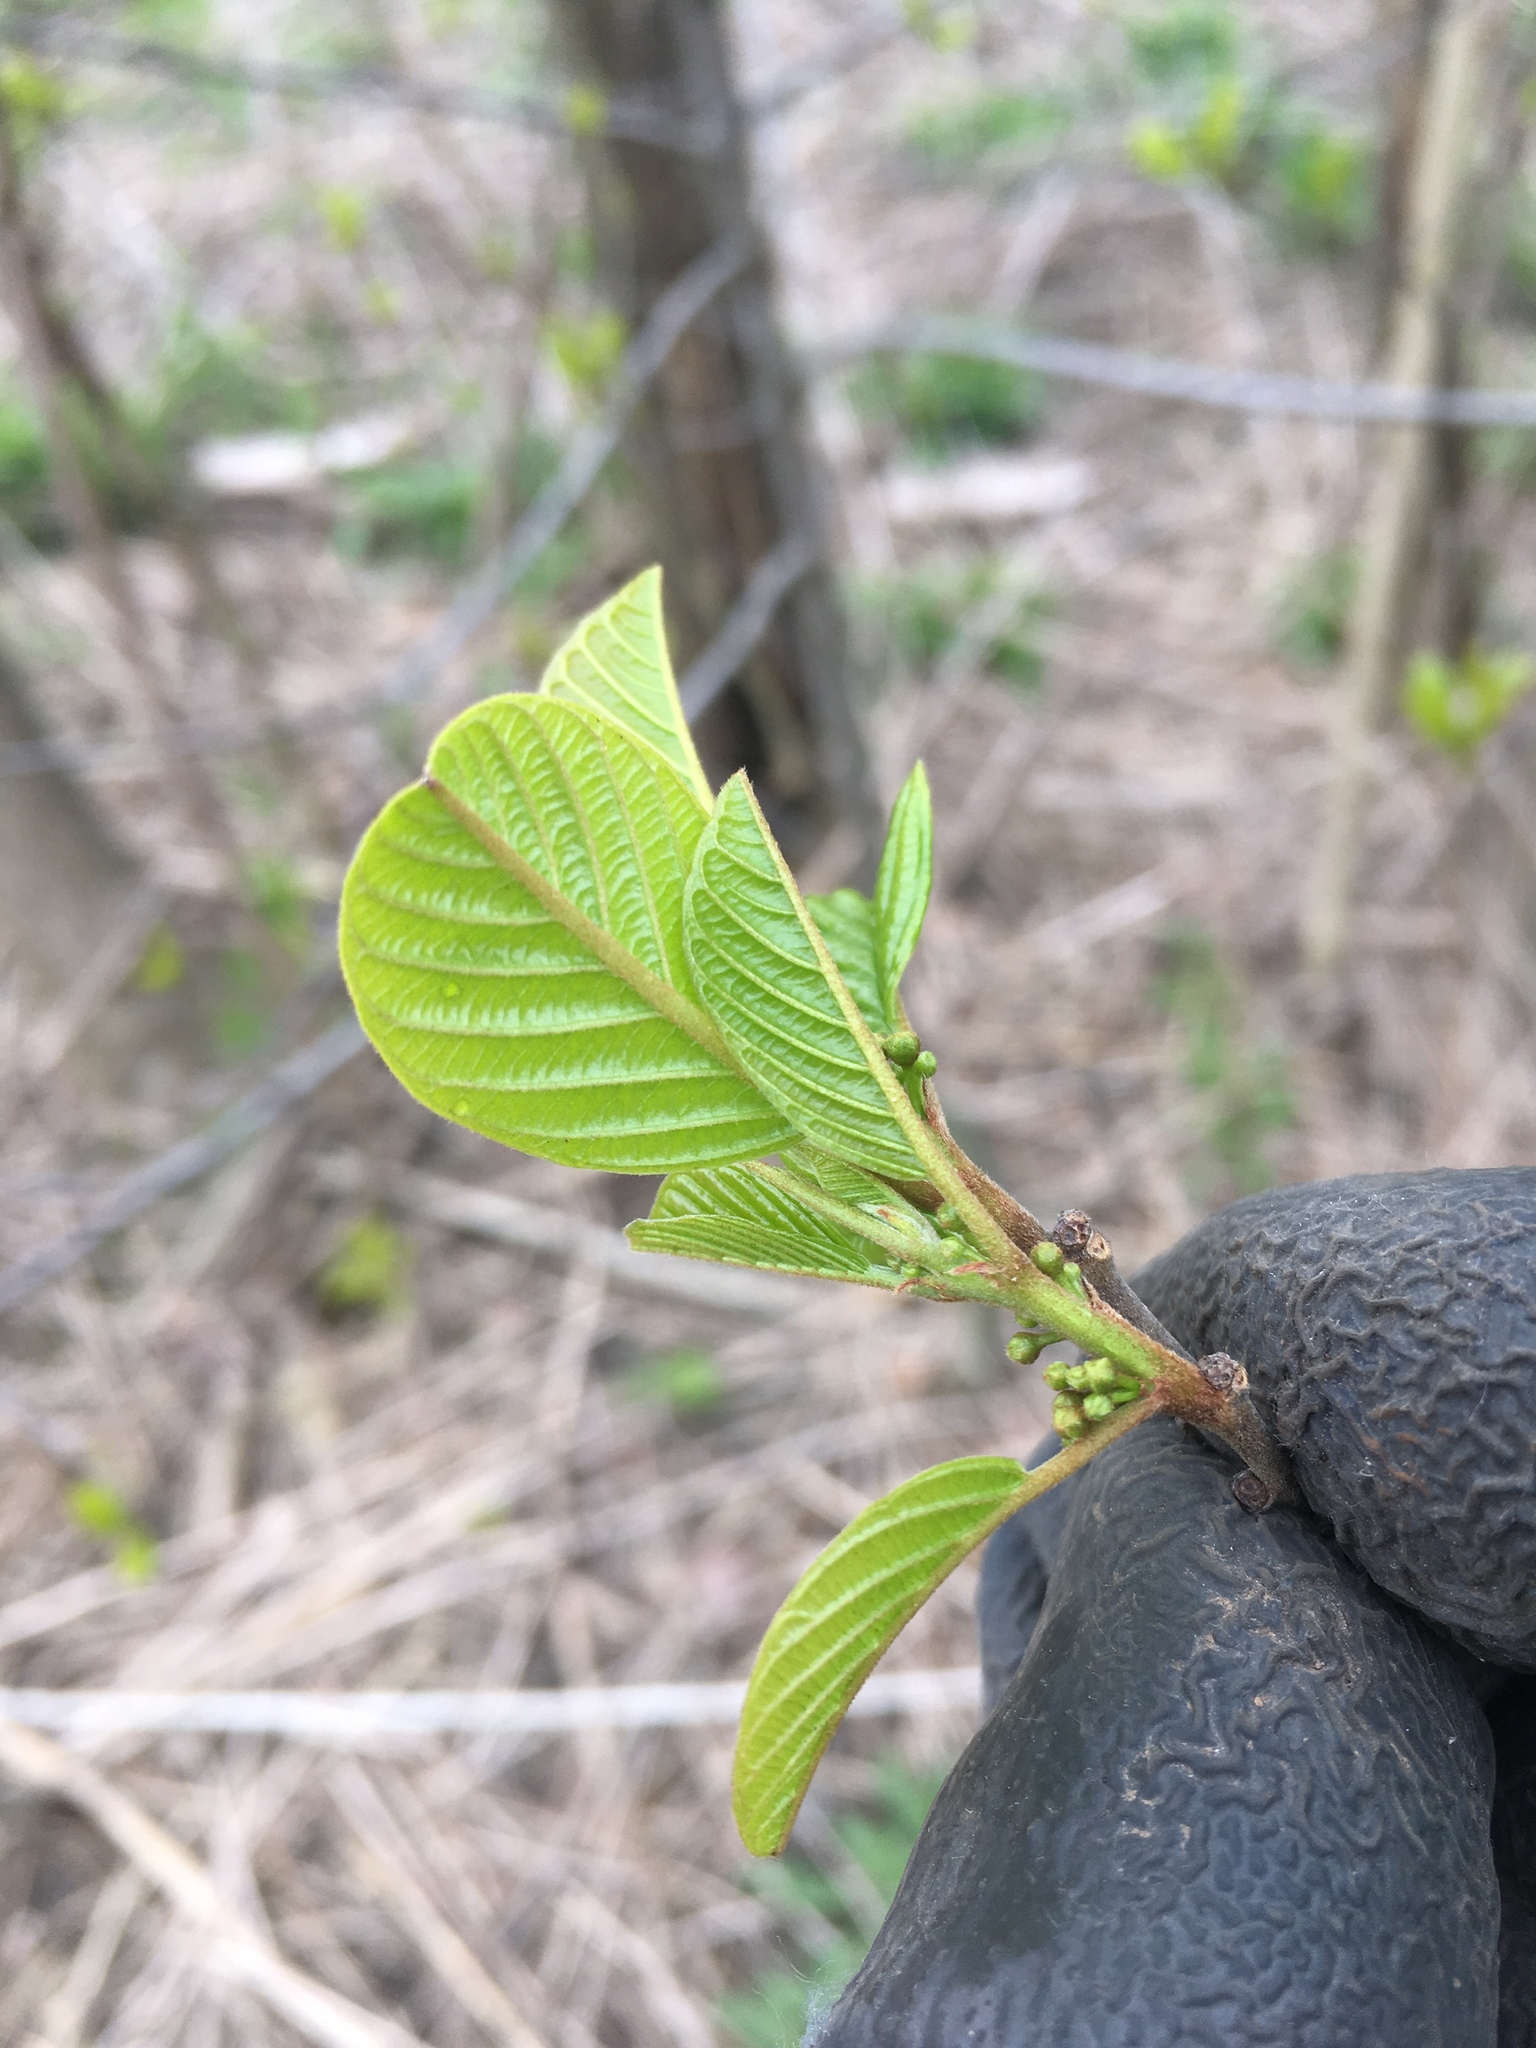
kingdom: Plantae
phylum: Tracheophyta
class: Magnoliopsida
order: Rosales
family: Rhamnaceae
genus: Frangula
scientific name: Frangula alnus
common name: Alder buckthorn
